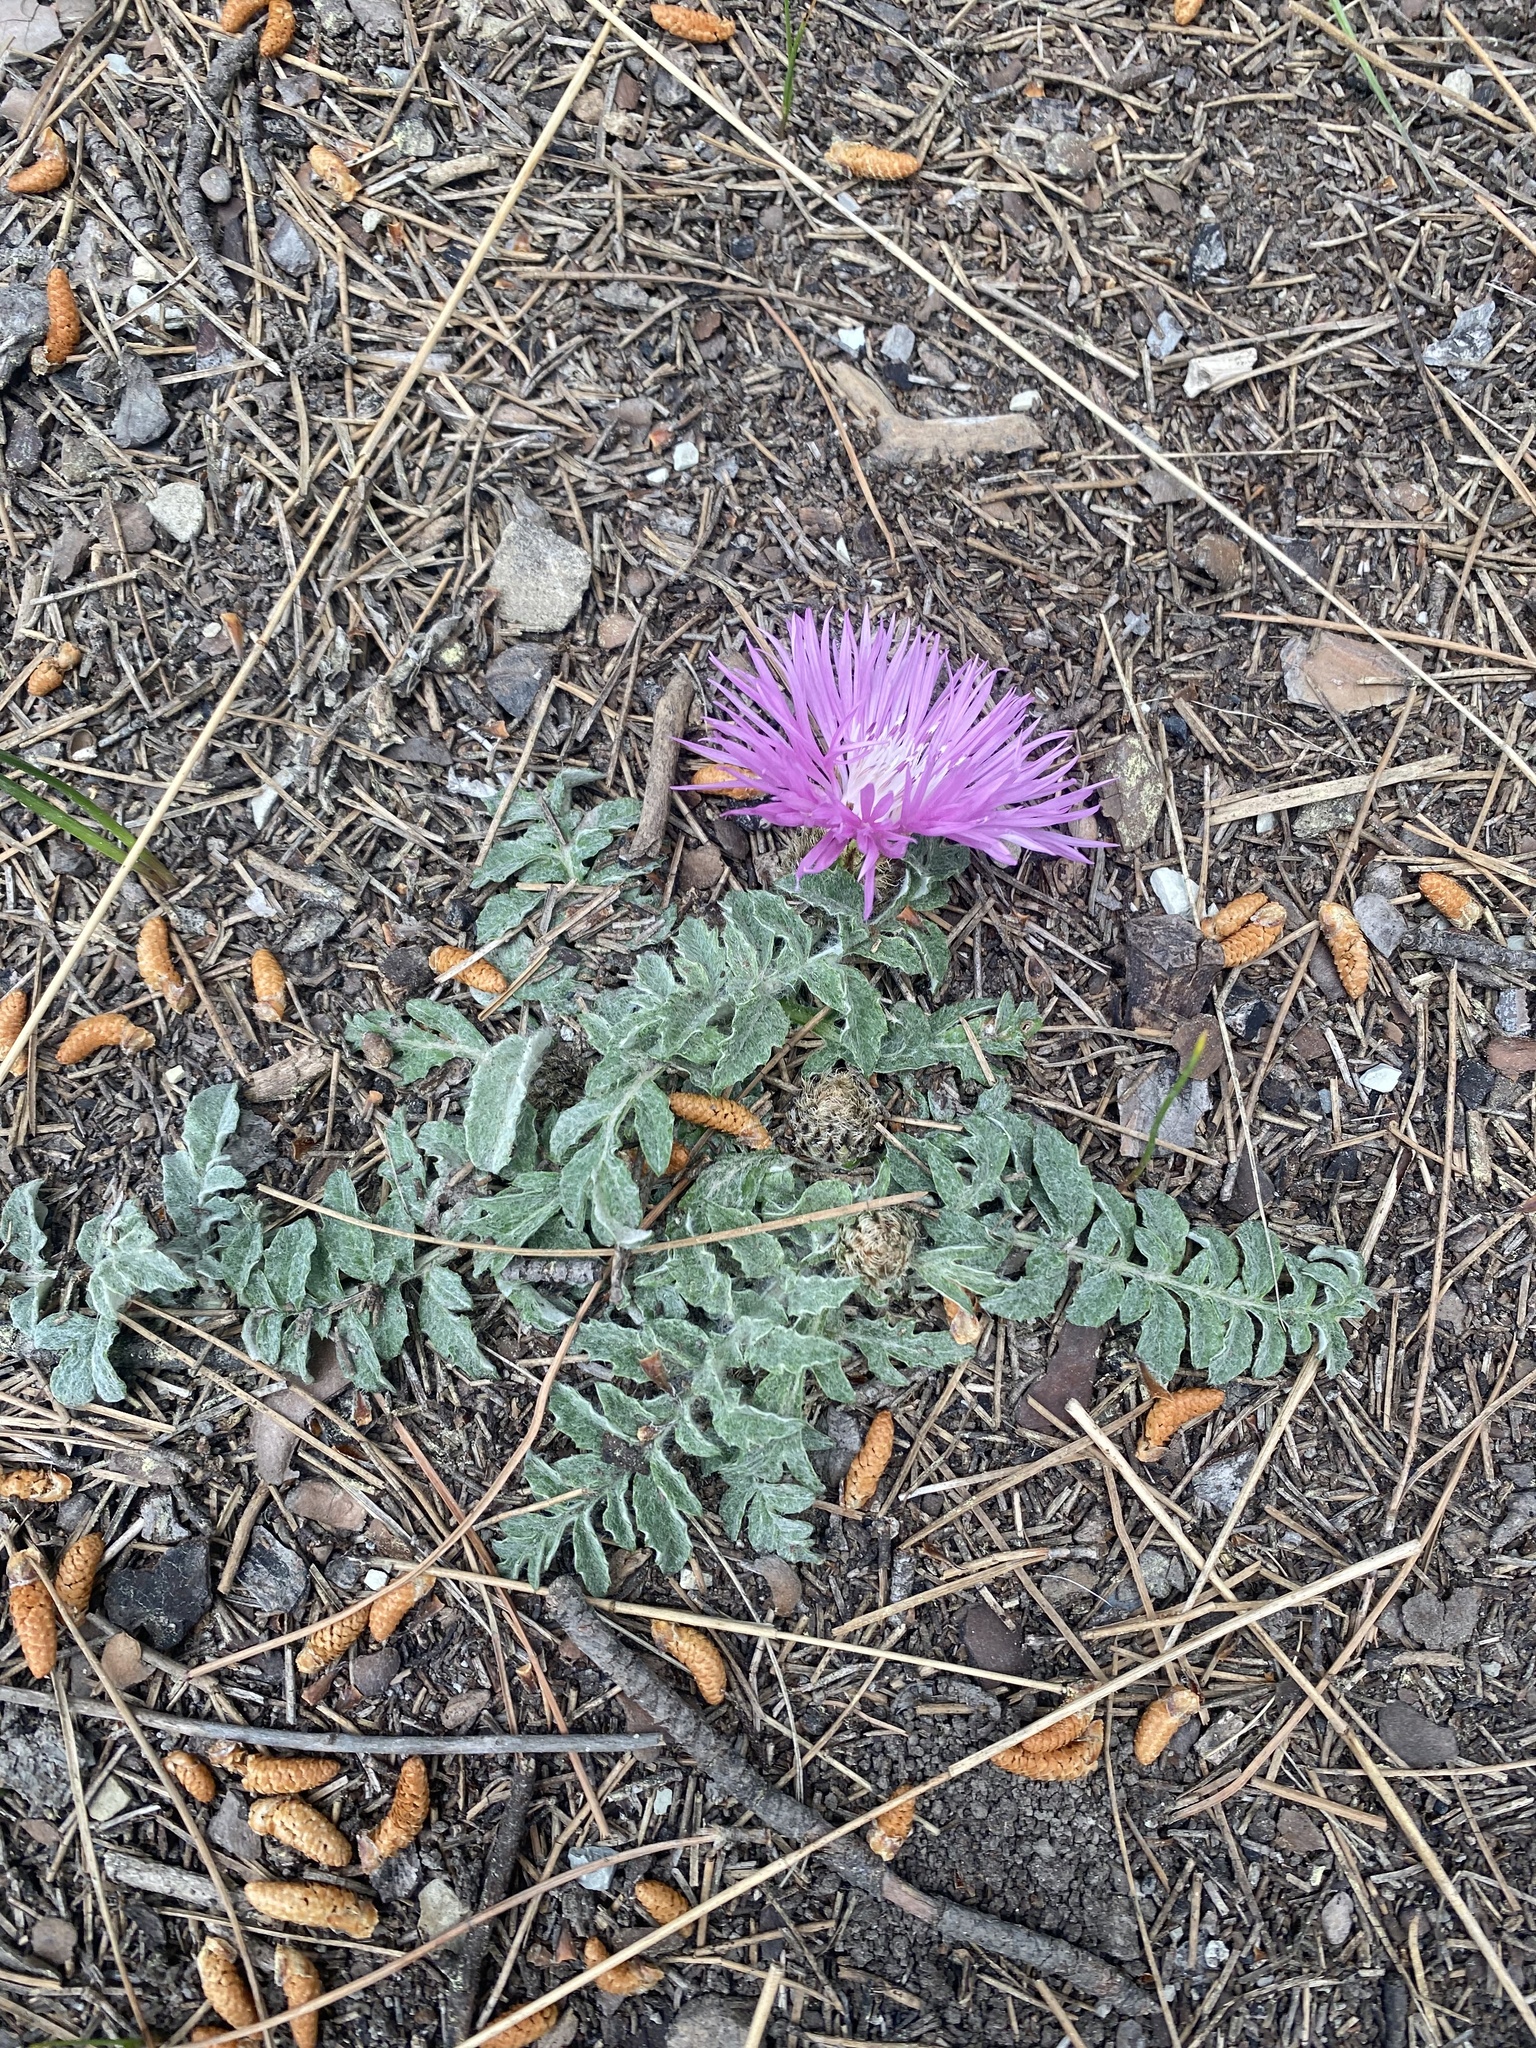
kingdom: Plantae
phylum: Tracheophyta
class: Magnoliopsida
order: Asterales
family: Asteraceae
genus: Psephellus
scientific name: Psephellus declinatus
